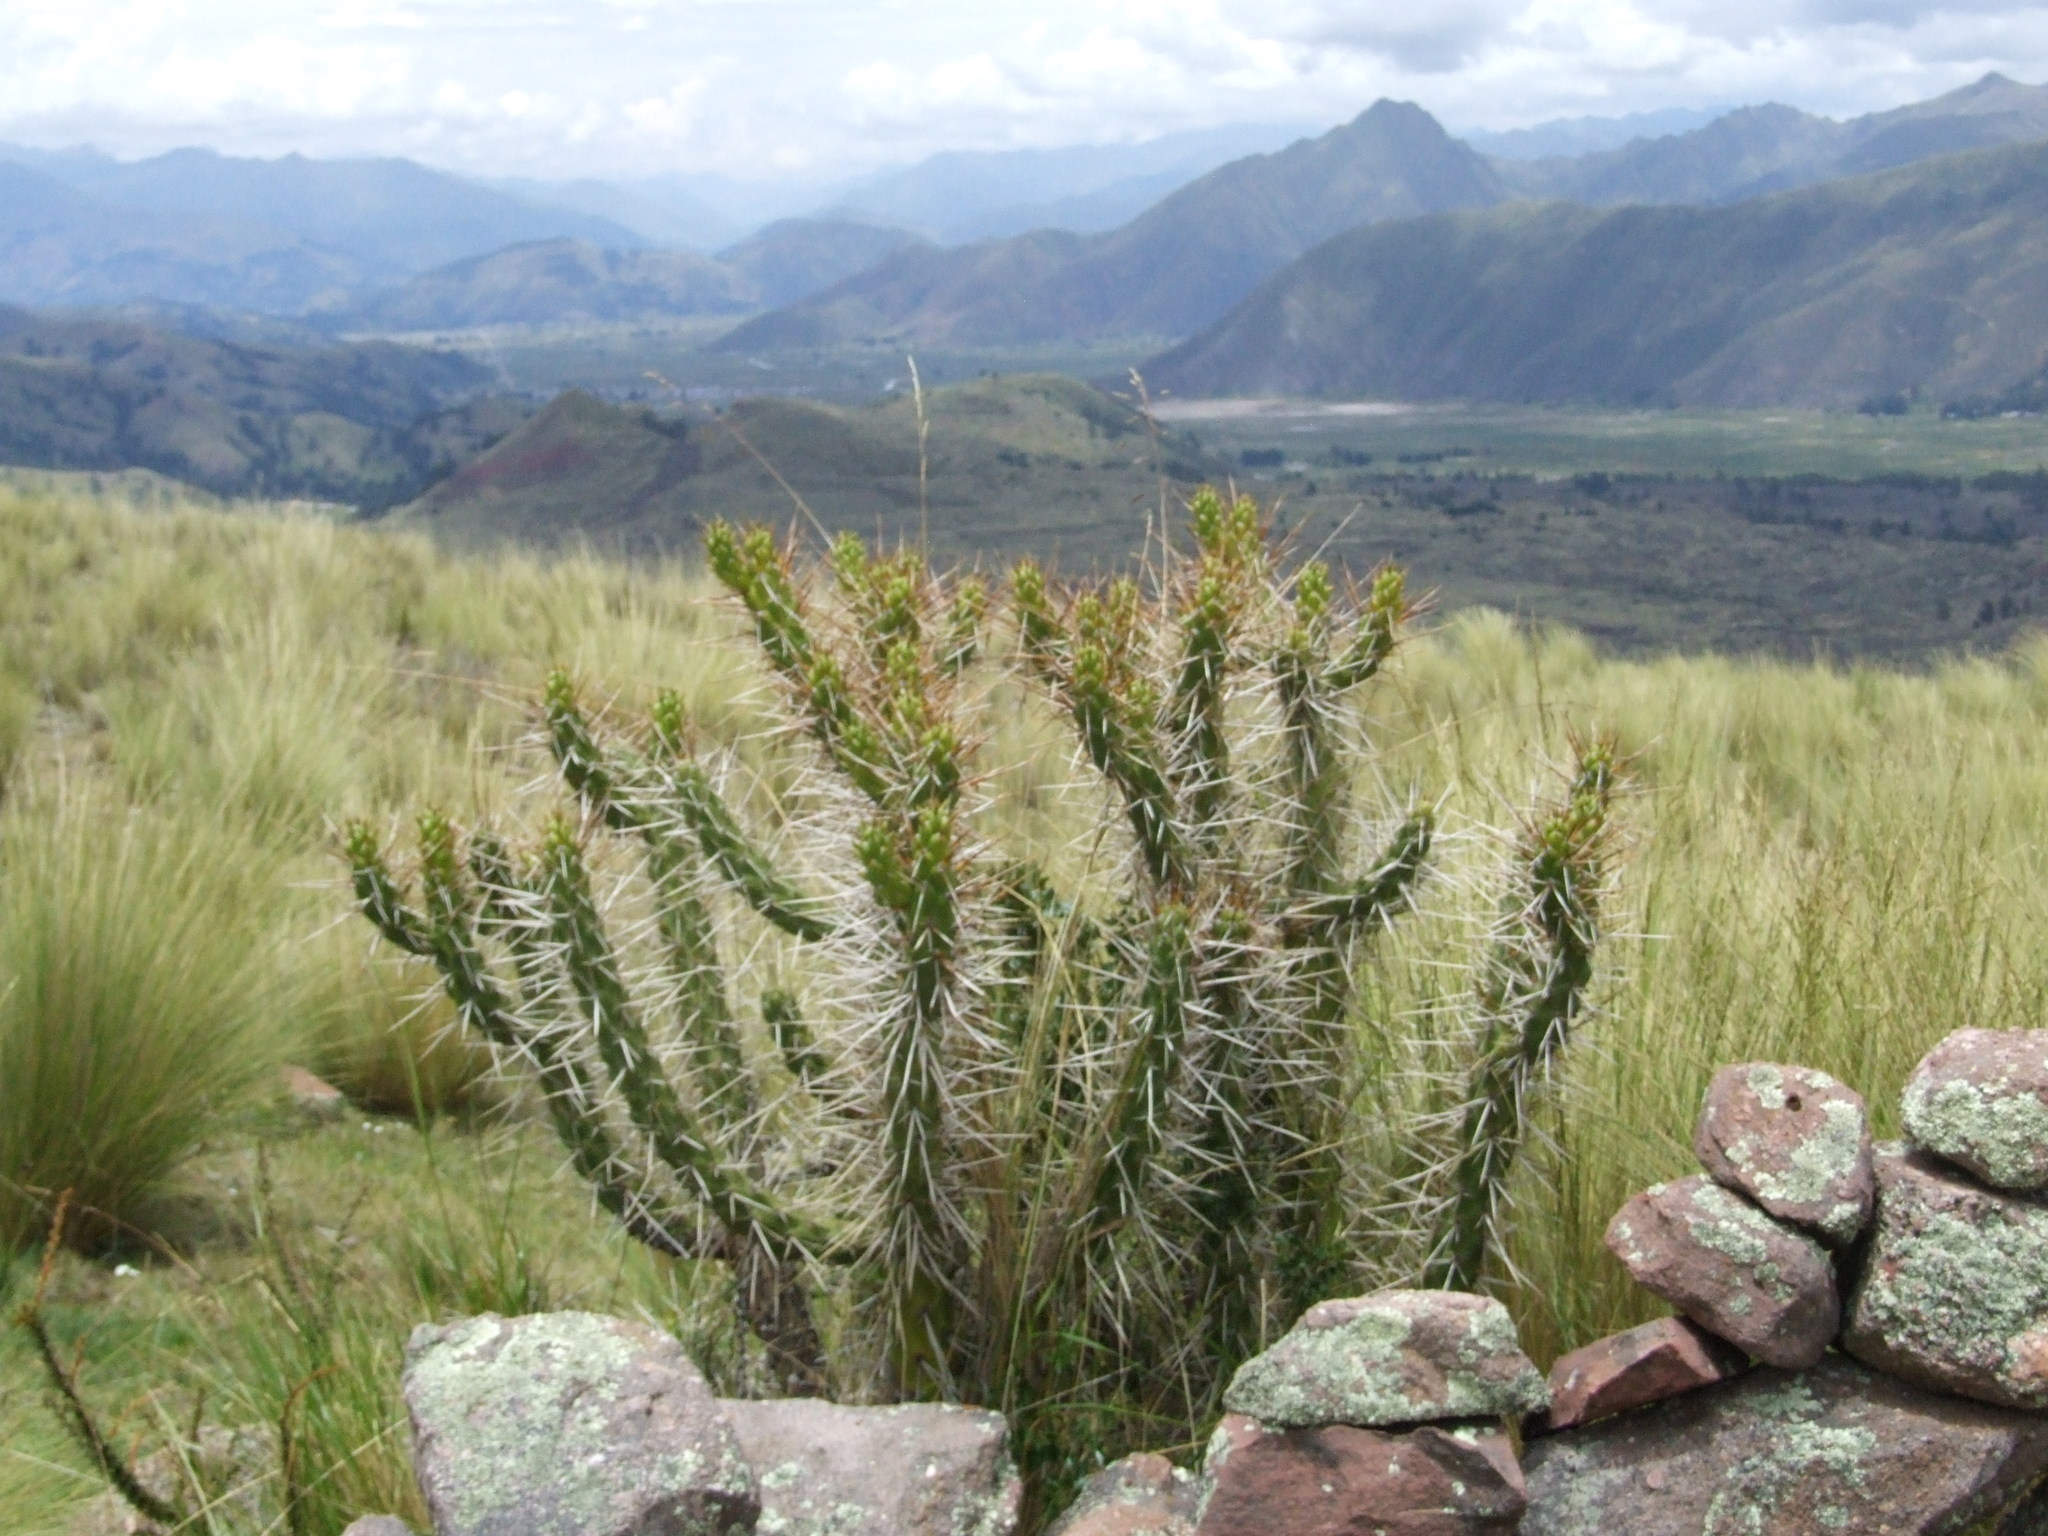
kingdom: Plantae
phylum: Tracheophyta
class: Magnoliopsida
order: Caryophyllales
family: Cactaceae
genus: Austrocylindropuntia
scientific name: Austrocylindropuntia subulata
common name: Eve's needle cactus
